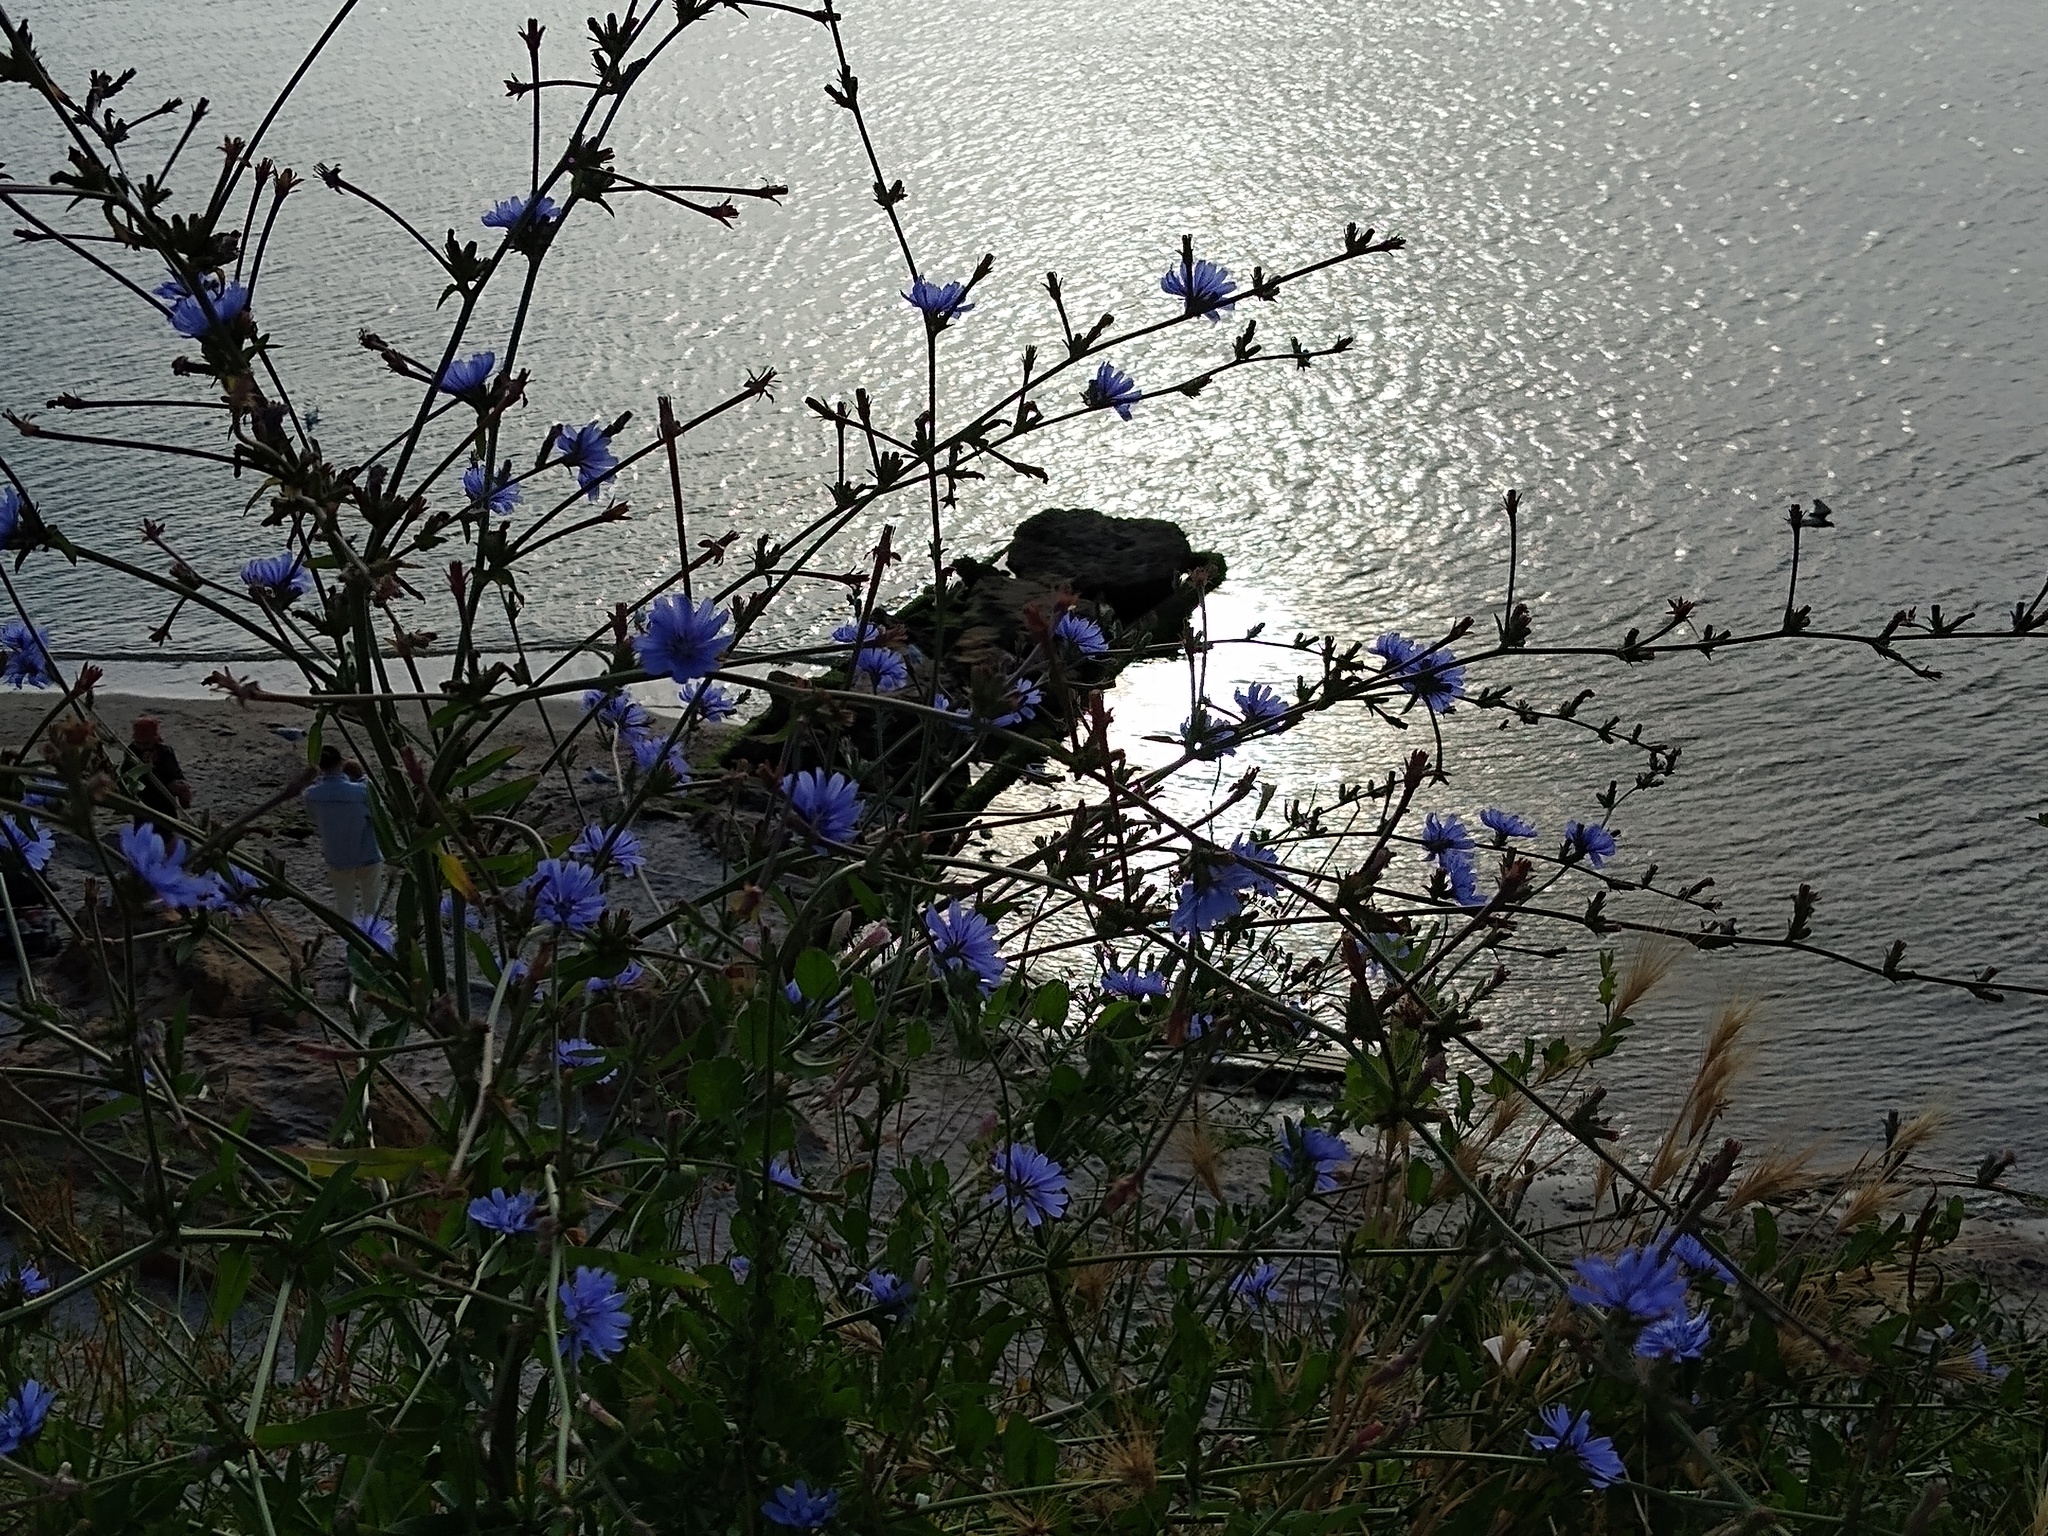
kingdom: Plantae
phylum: Tracheophyta
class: Magnoliopsida
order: Asterales
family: Asteraceae
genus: Cichorium
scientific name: Cichorium intybus
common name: Chicory
